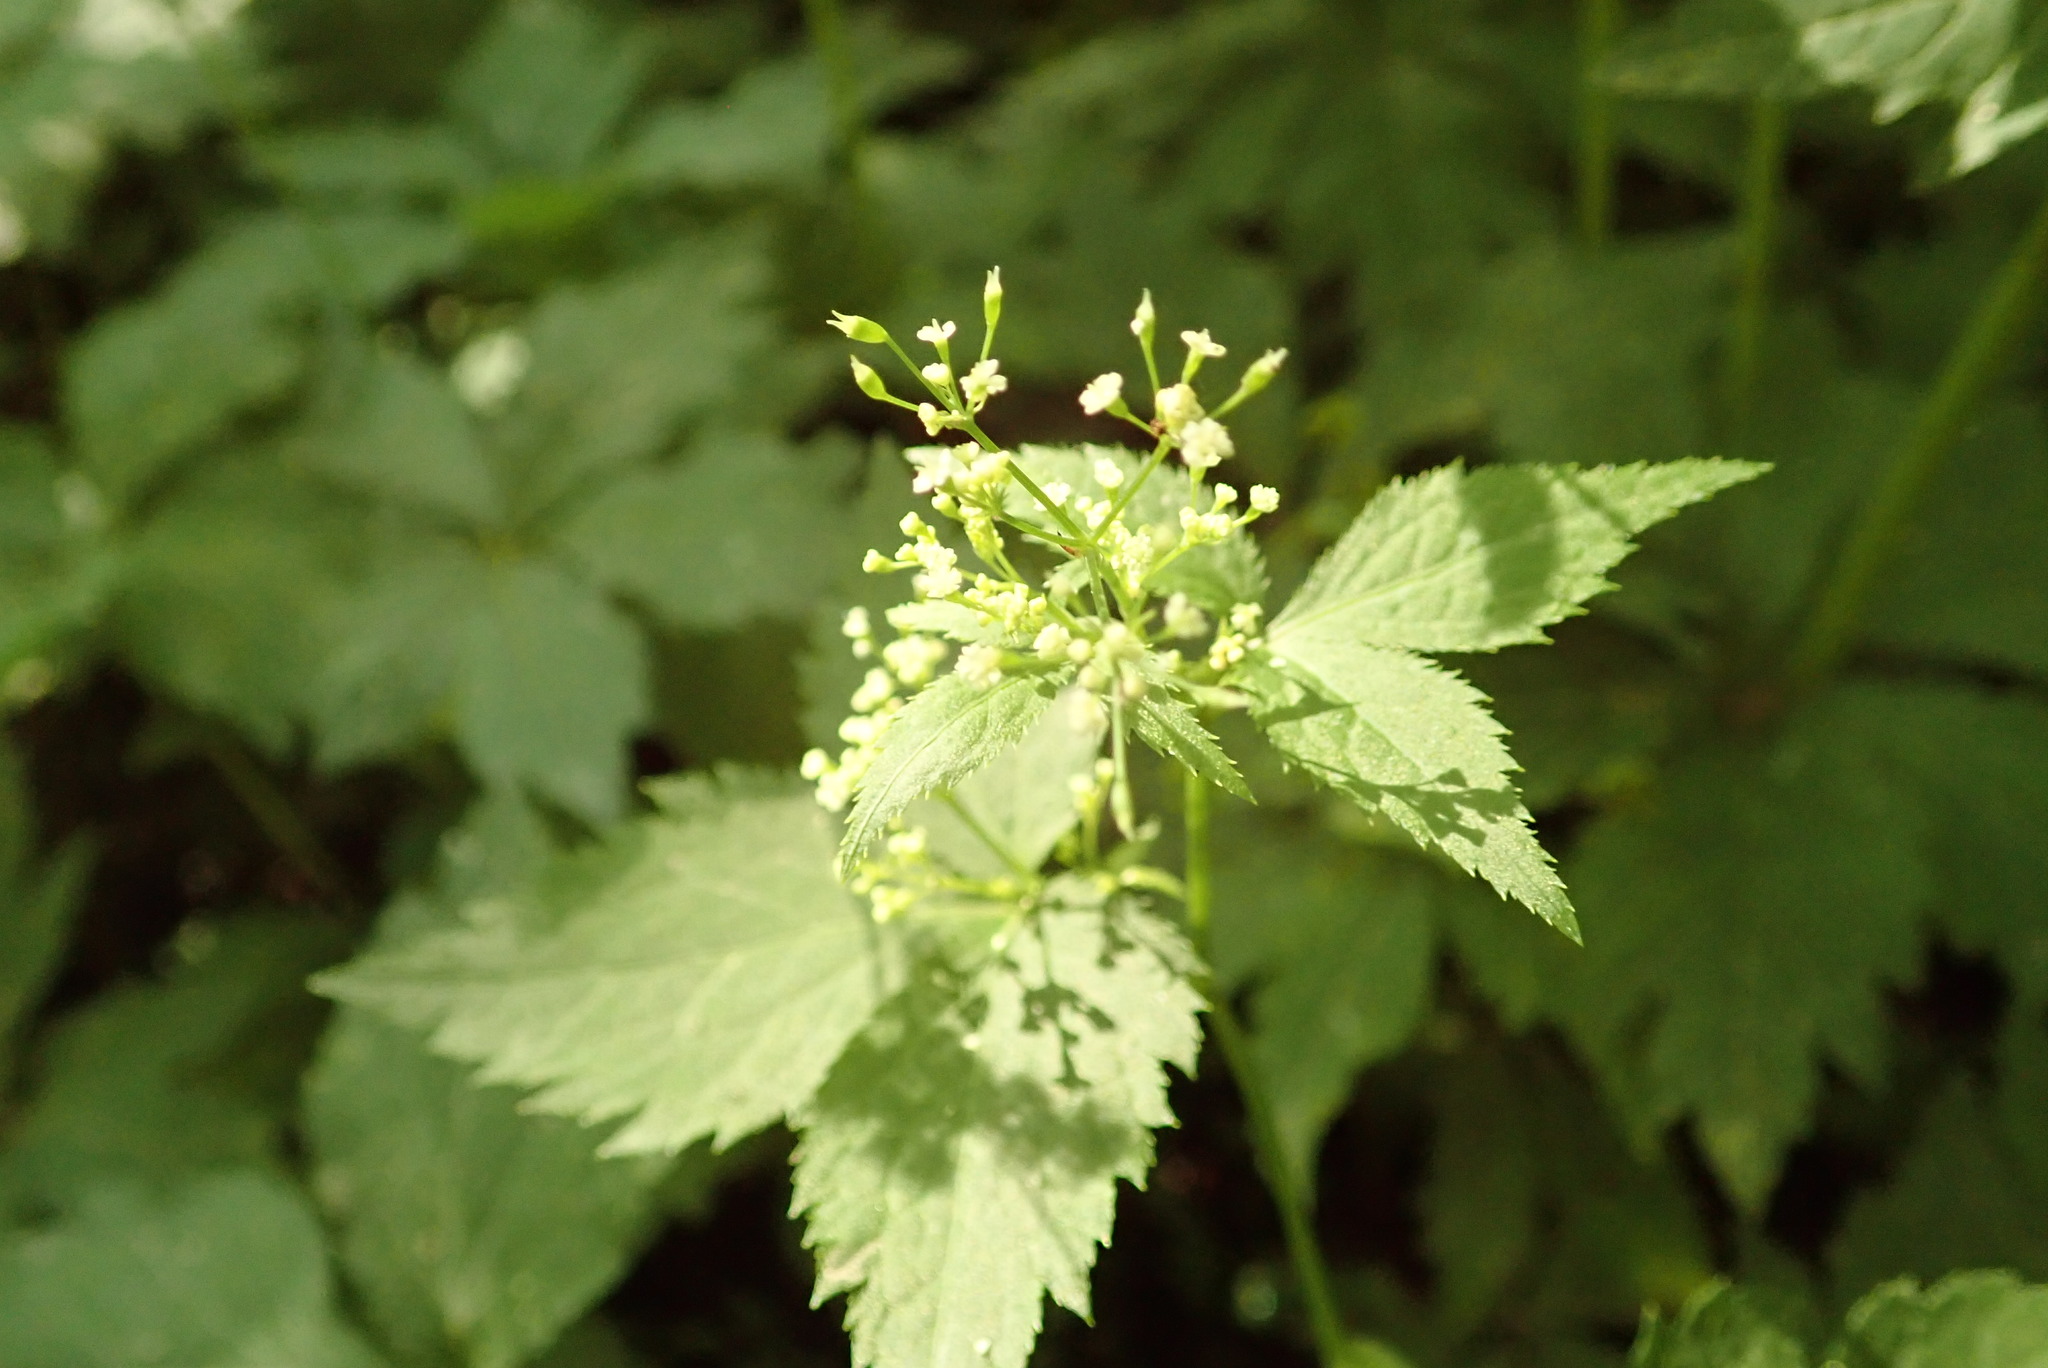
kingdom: Plantae
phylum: Tracheophyta
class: Magnoliopsida
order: Apiales
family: Apiaceae
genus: Cryptotaenia
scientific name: Cryptotaenia canadensis
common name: Honewort
